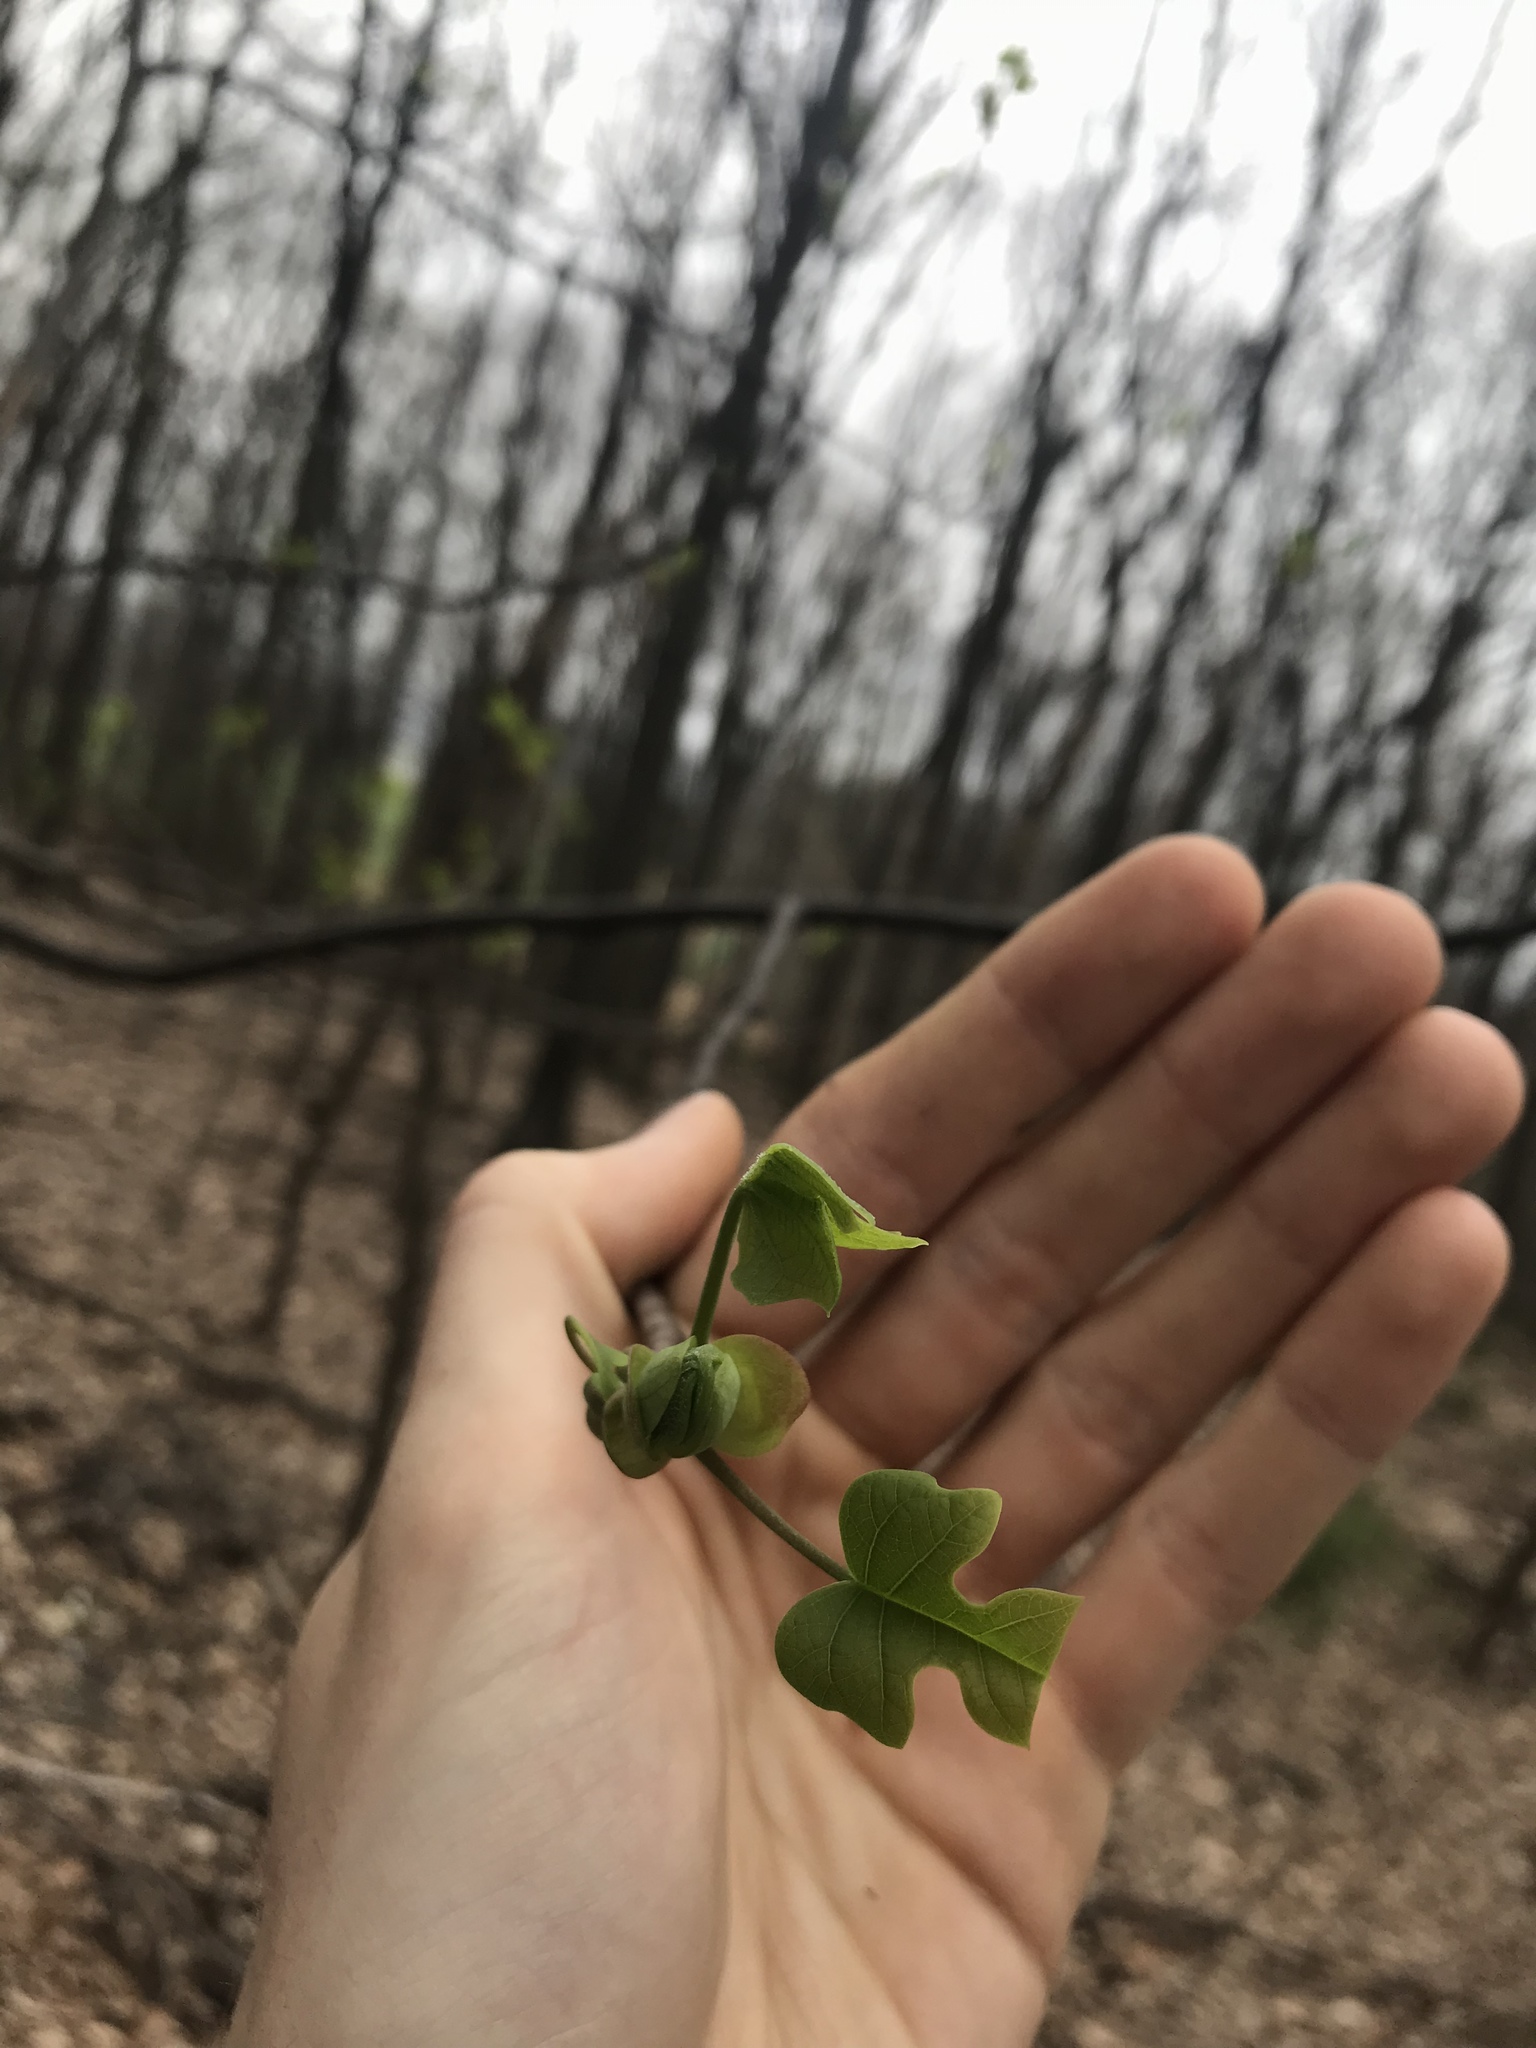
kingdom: Plantae
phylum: Tracheophyta
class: Magnoliopsida
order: Magnoliales
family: Magnoliaceae
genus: Liriodendron
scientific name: Liriodendron tulipifera
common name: Tulip tree
